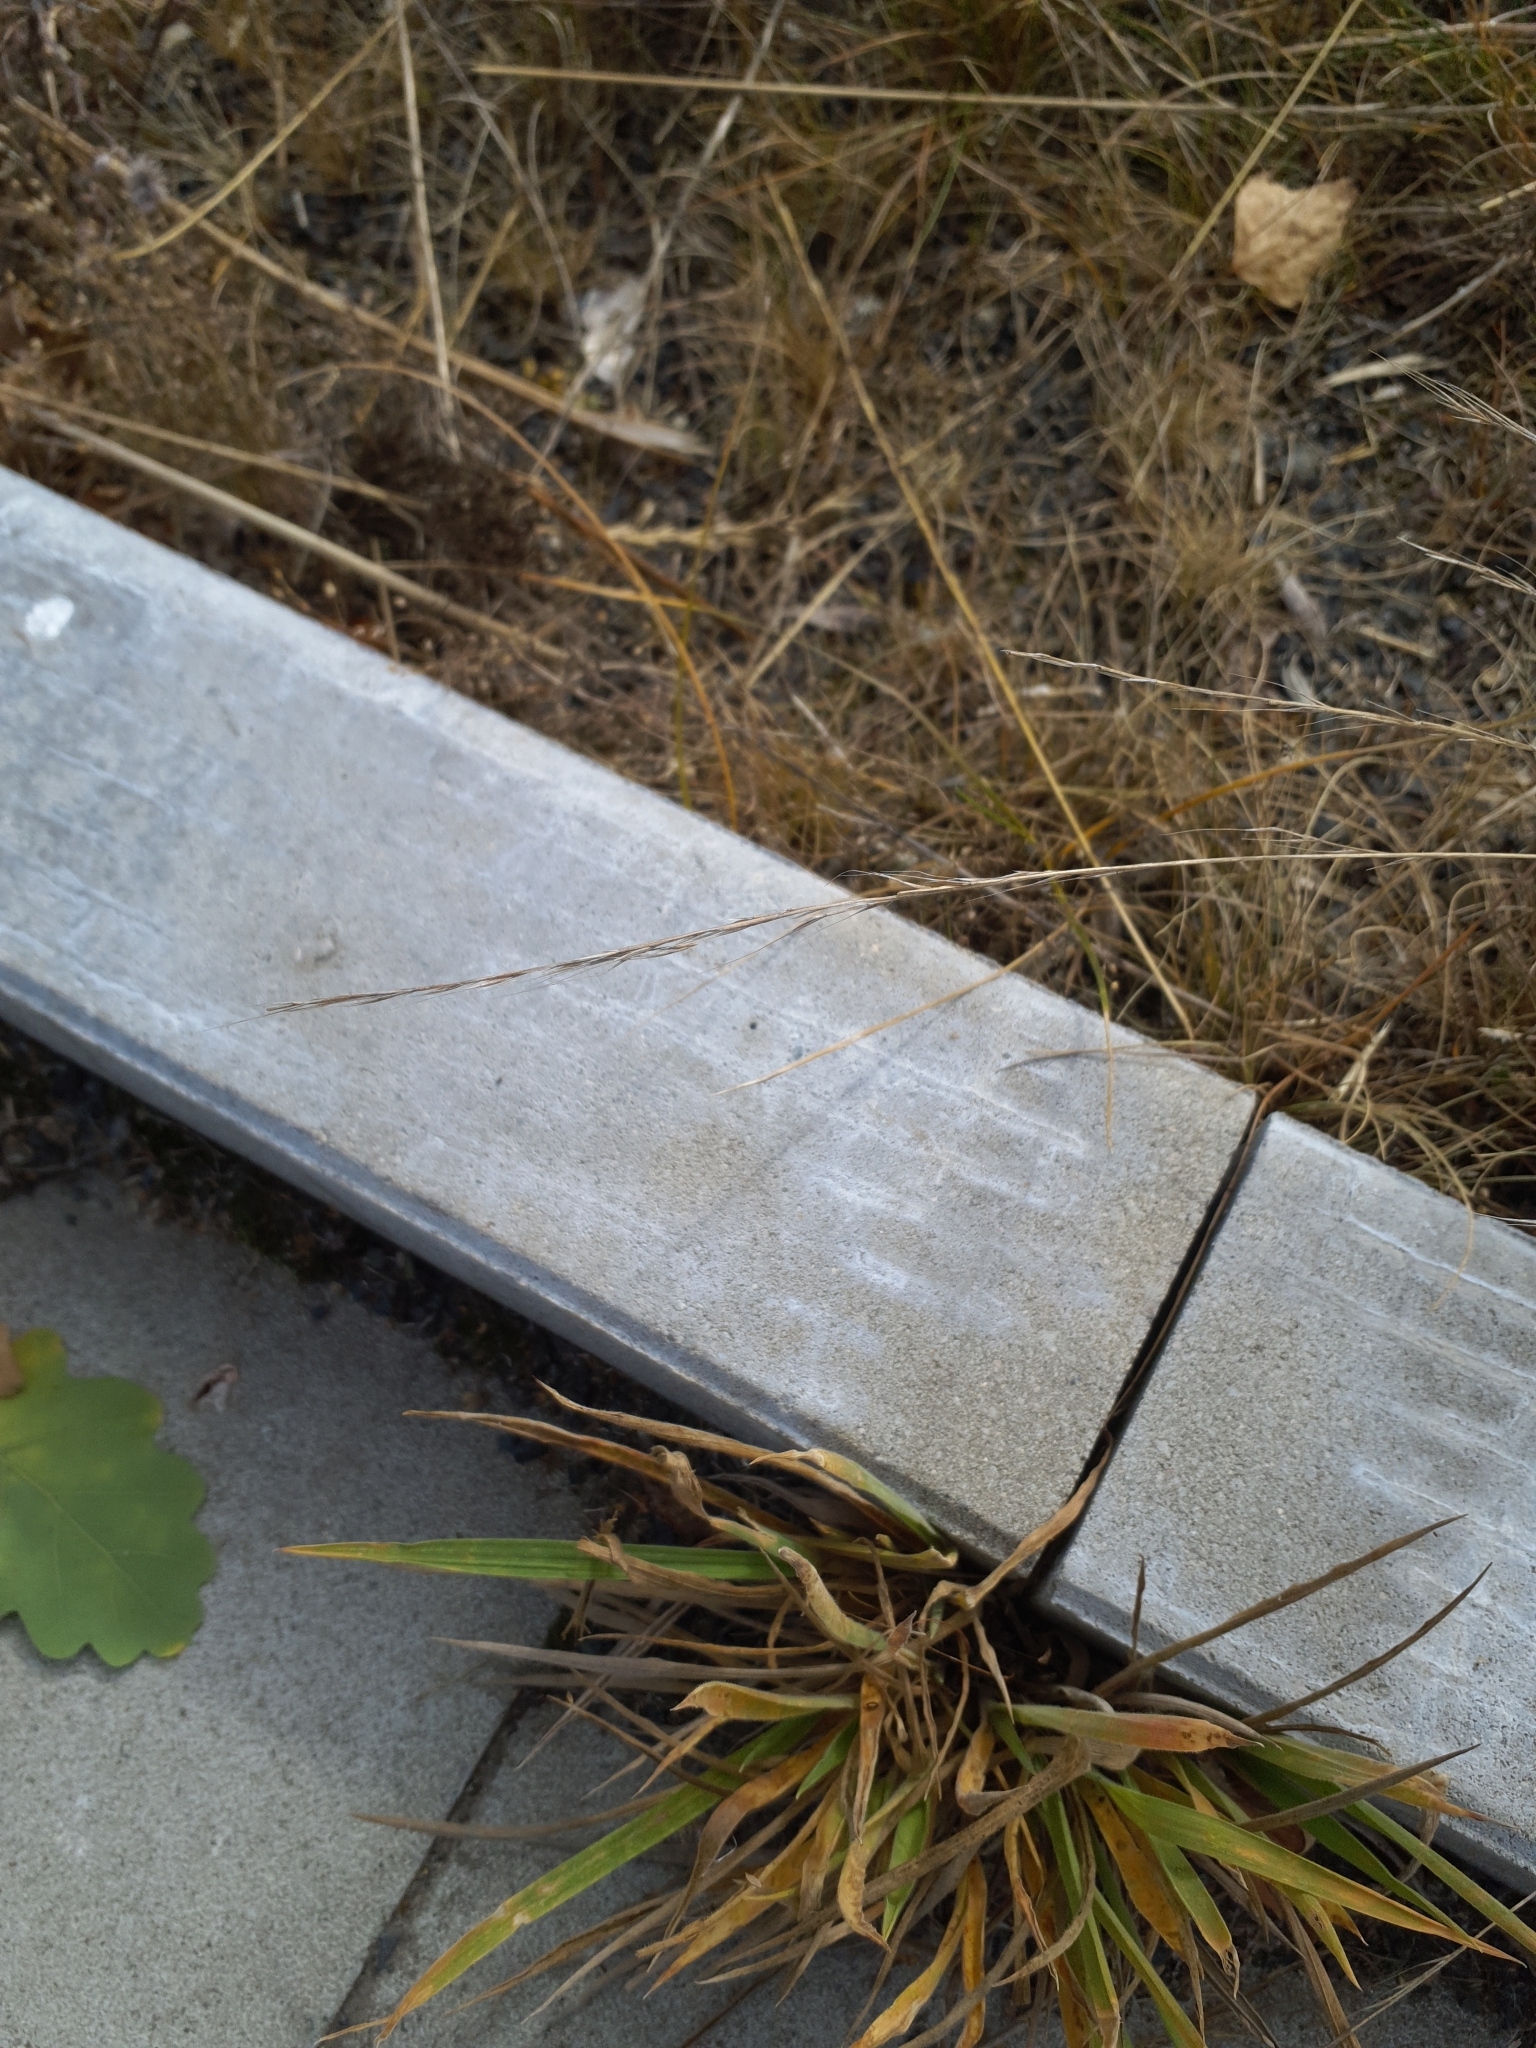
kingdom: Plantae
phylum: Tracheophyta
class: Liliopsida
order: Poales
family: Poaceae
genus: Festuca
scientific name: Festuca myuros
